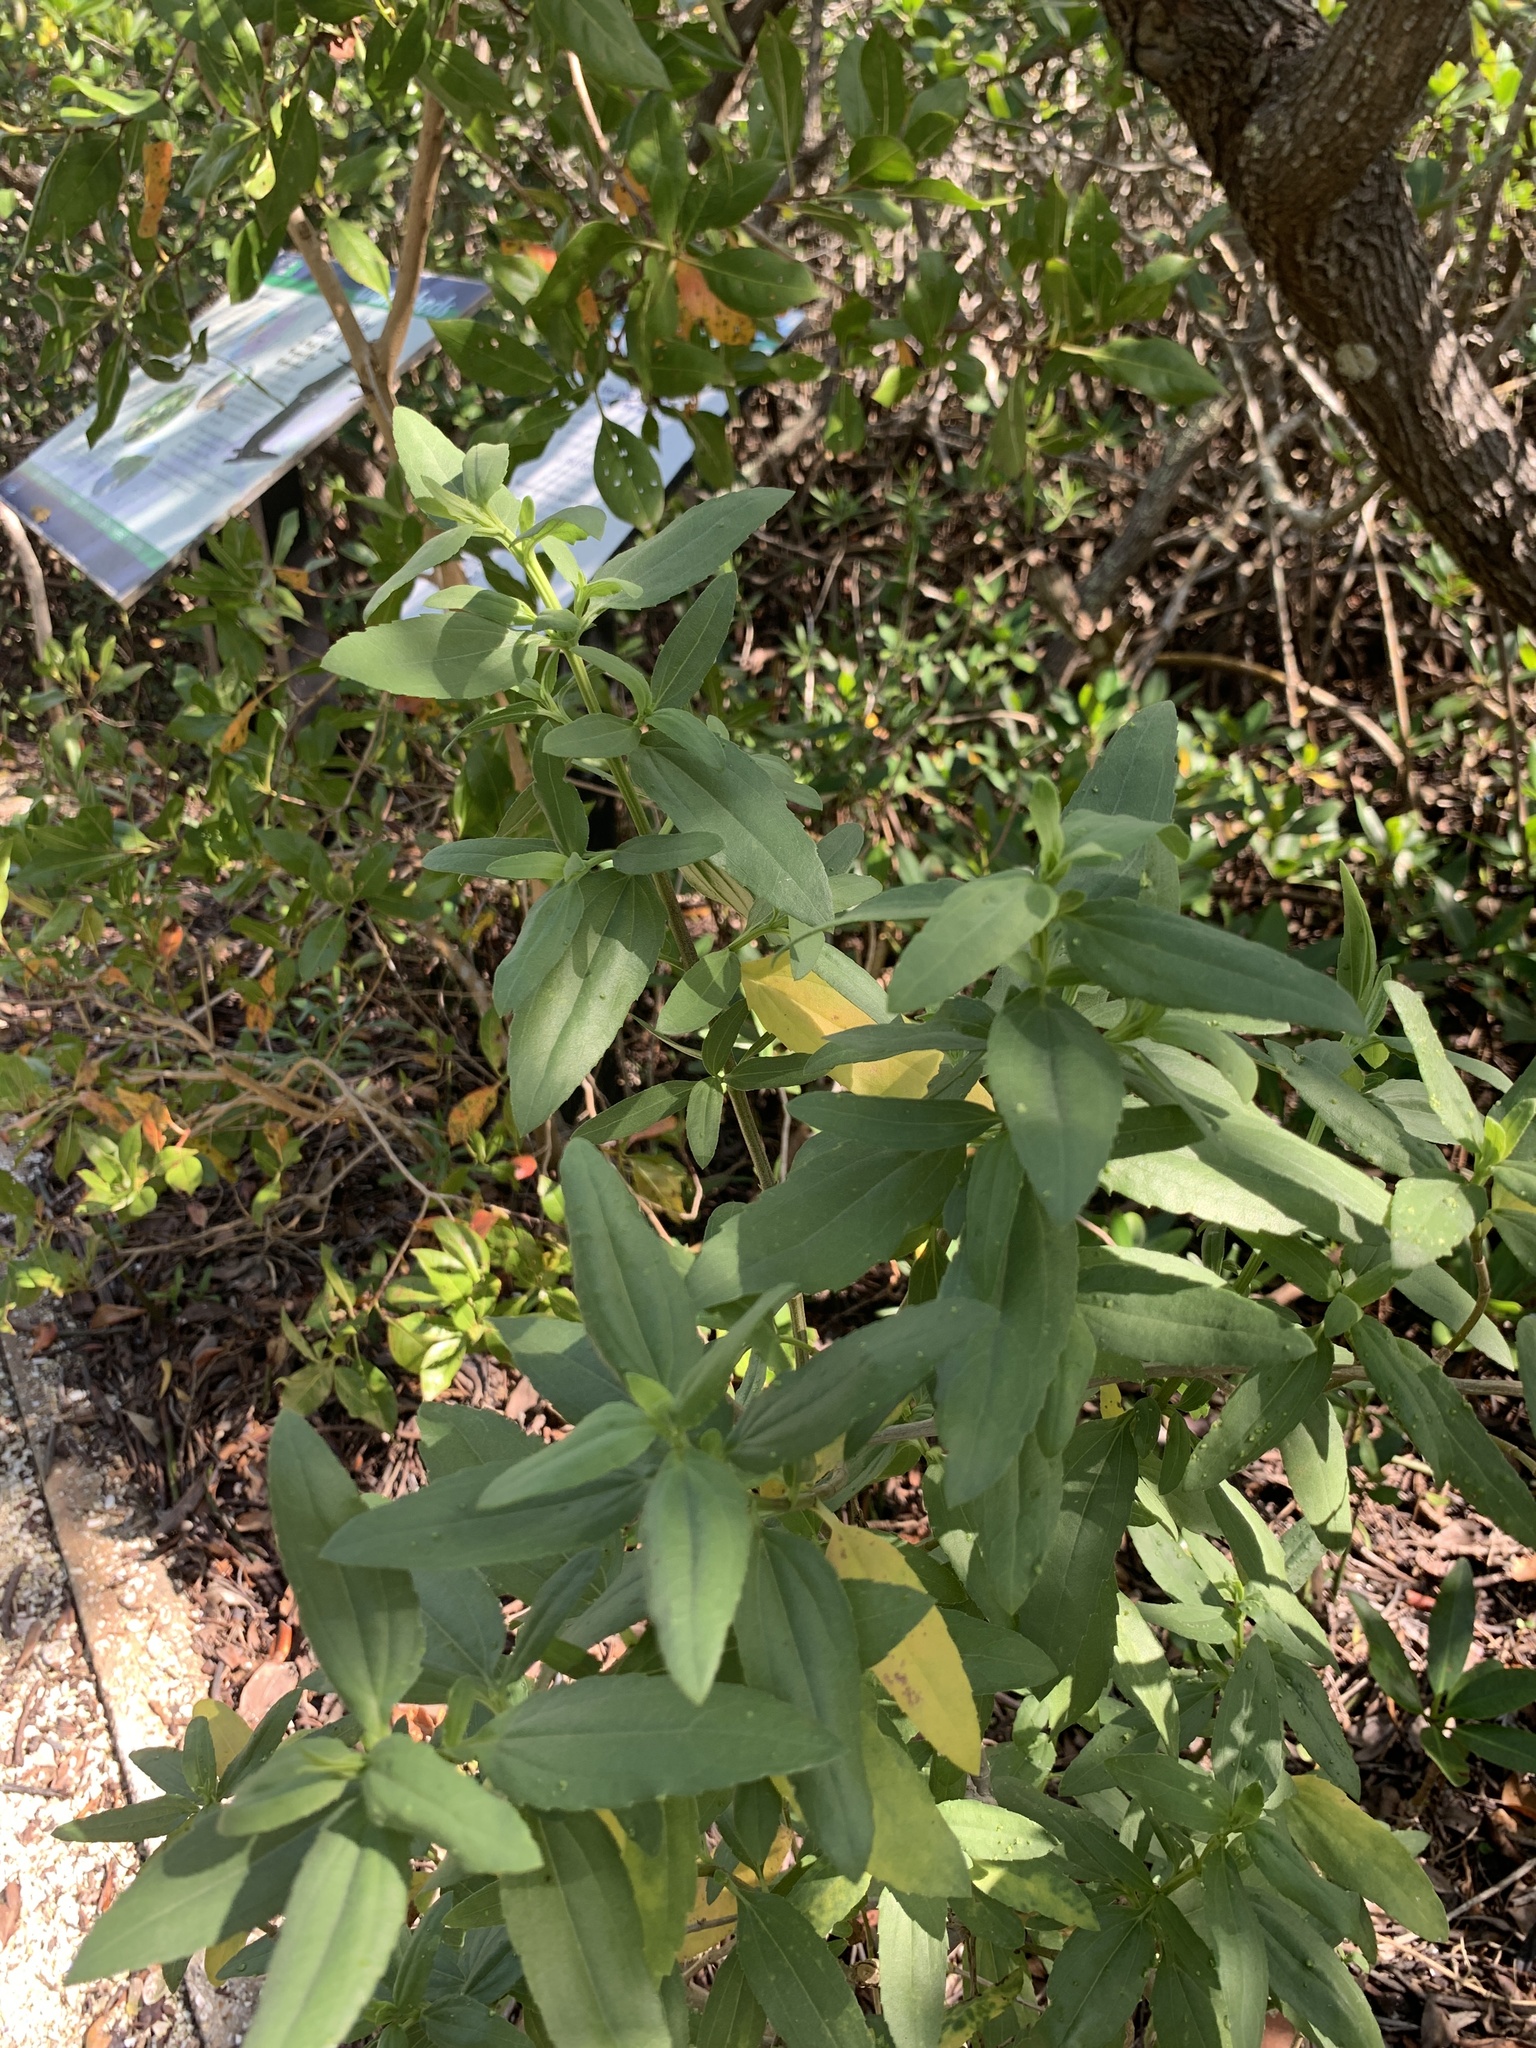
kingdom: Plantae
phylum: Tracheophyta
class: Magnoliopsida
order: Asterales
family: Asteraceae
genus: Iva
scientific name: Iva imbricata
